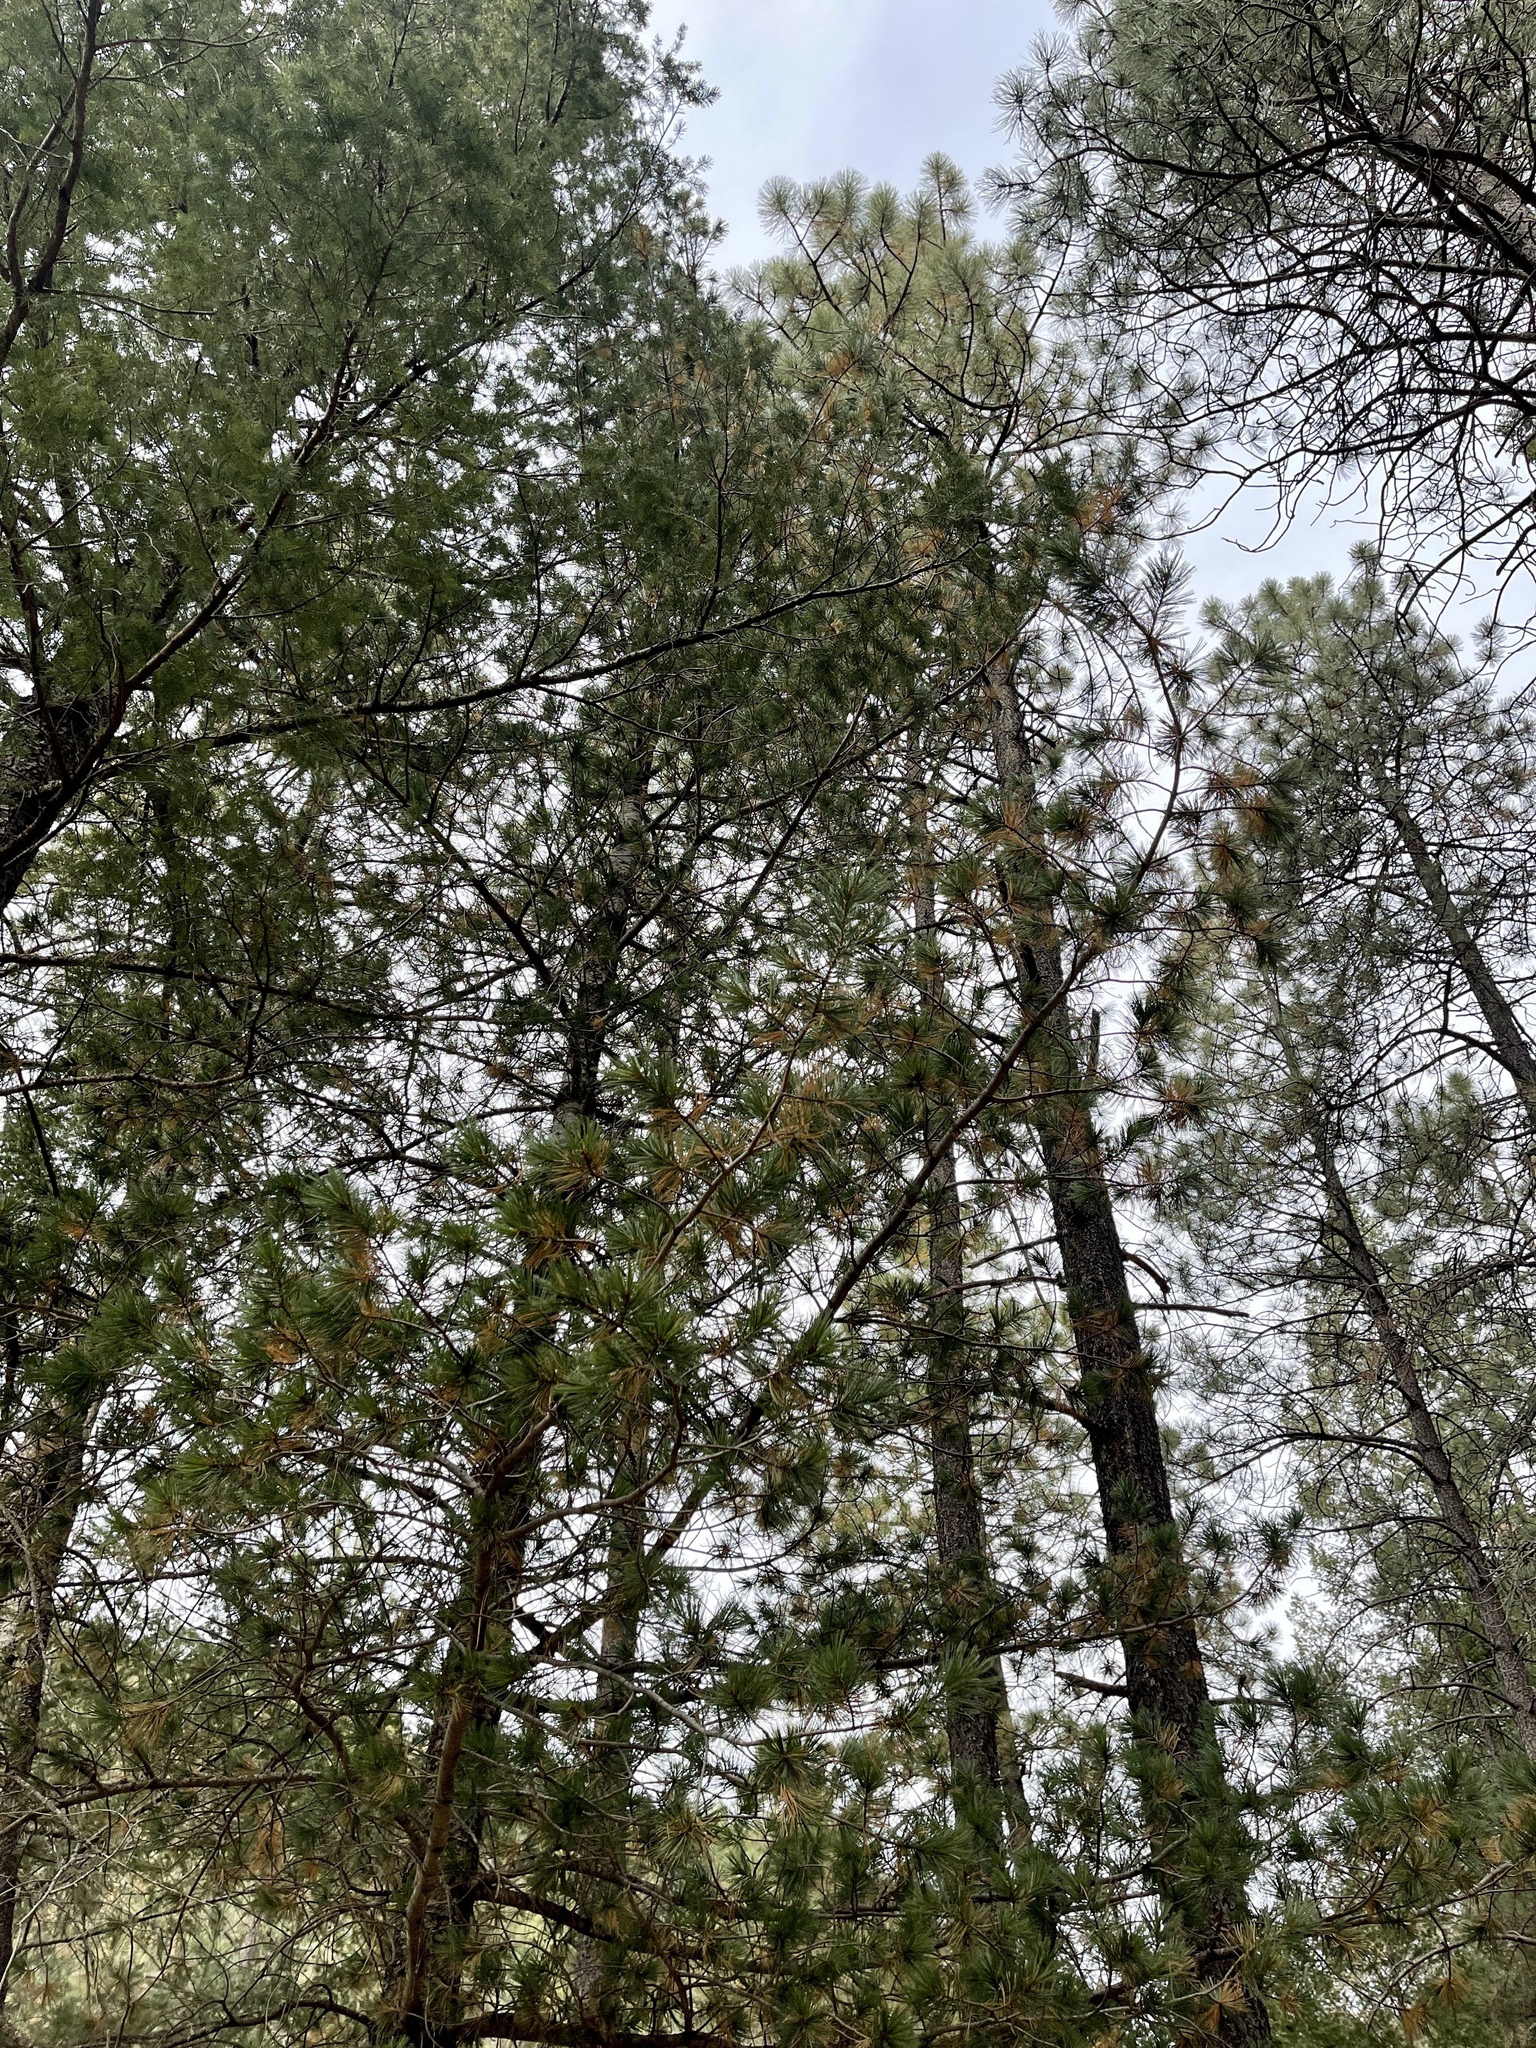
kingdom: Plantae
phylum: Tracheophyta
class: Pinopsida
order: Pinales
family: Pinaceae
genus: Pinus
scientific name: Pinus ponderosa
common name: Western yellow-pine
